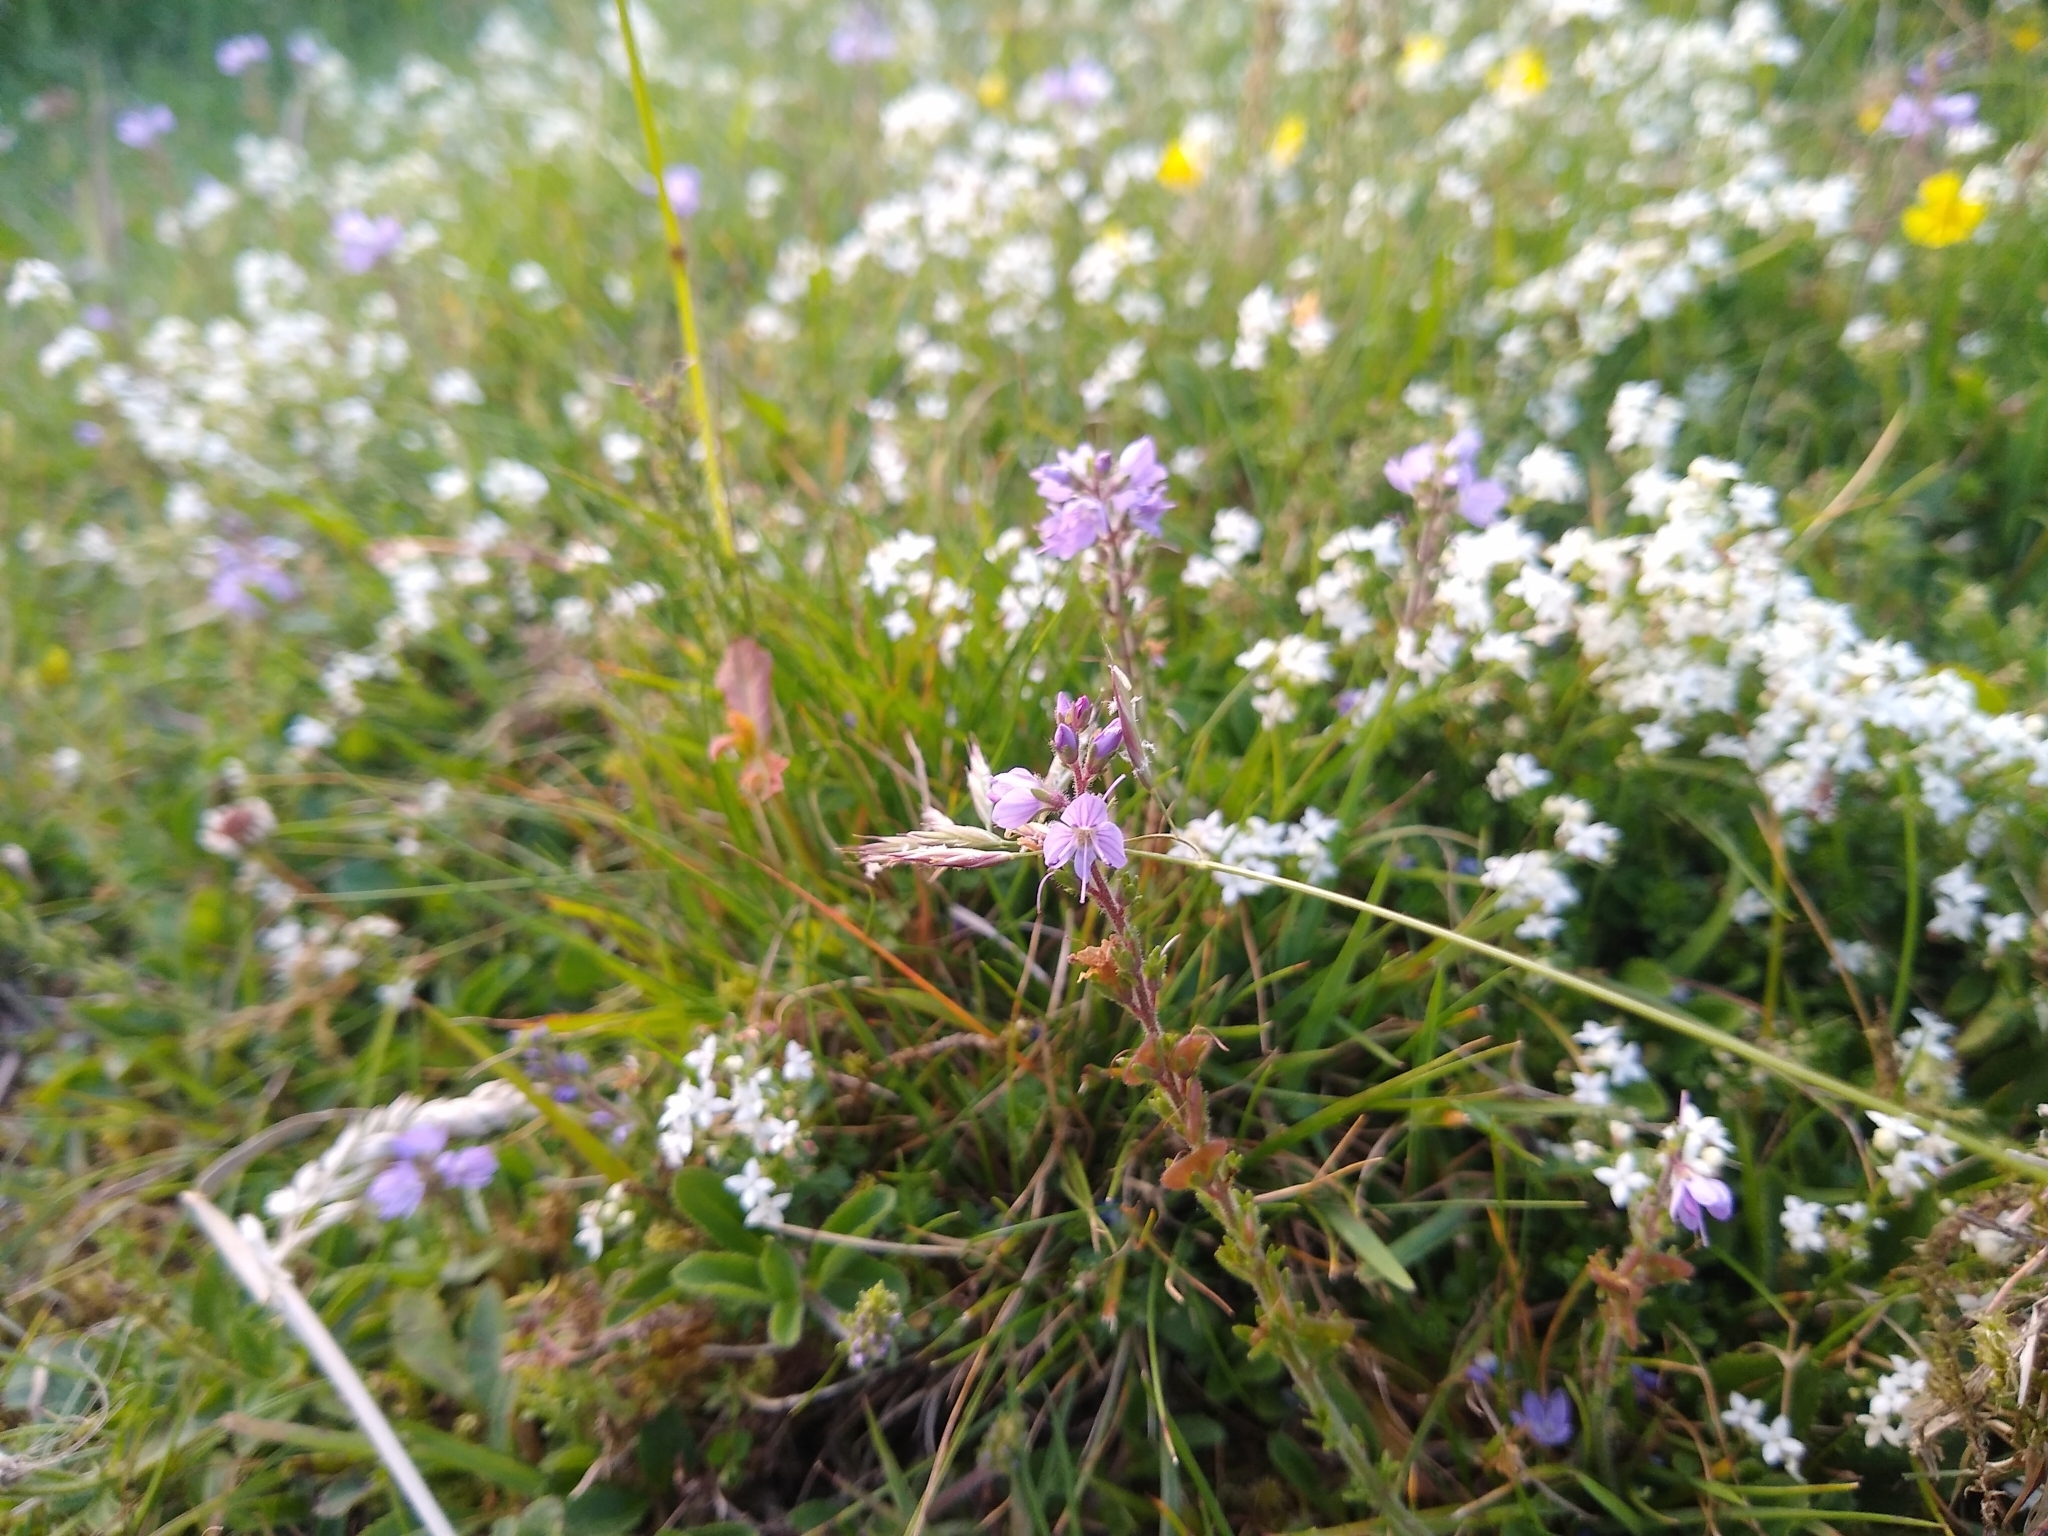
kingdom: Plantae
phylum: Tracheophyta
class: Magnoliopsida
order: Lamiales
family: Plantaginaceae
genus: Veronica
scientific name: Veronica officinalis
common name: Common speedwell
